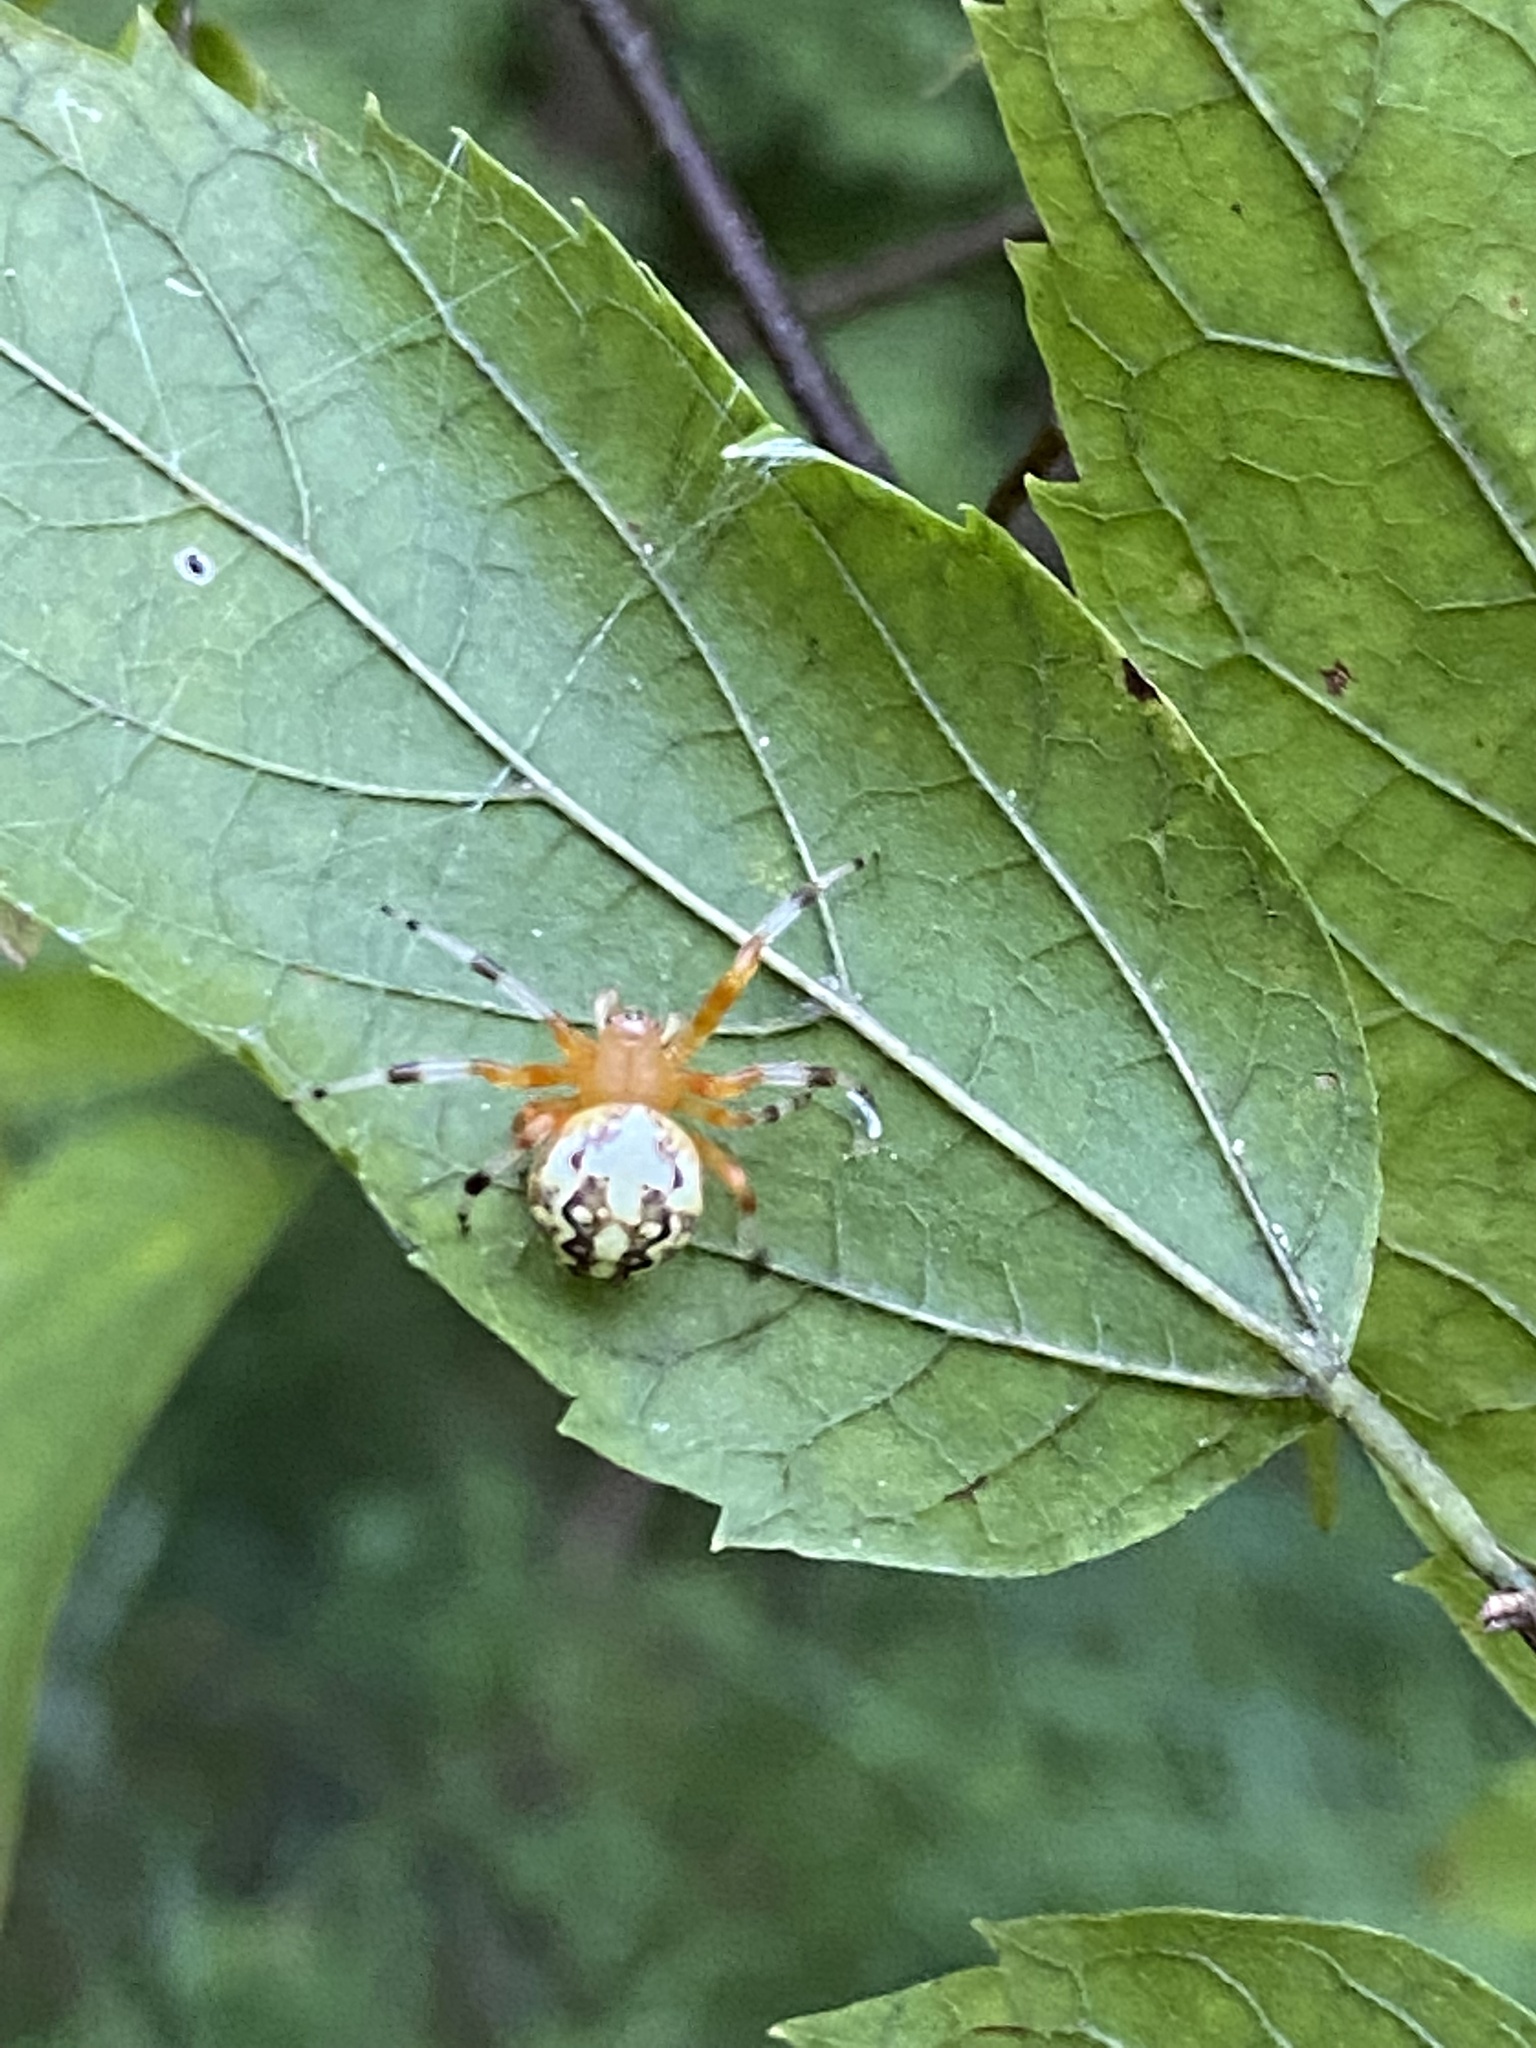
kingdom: Animalia
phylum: Arthropoda
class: Arachnida
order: Araneae
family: Araneidae
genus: Araneus
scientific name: Araneus marmoreus
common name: Marbled orbweaver
